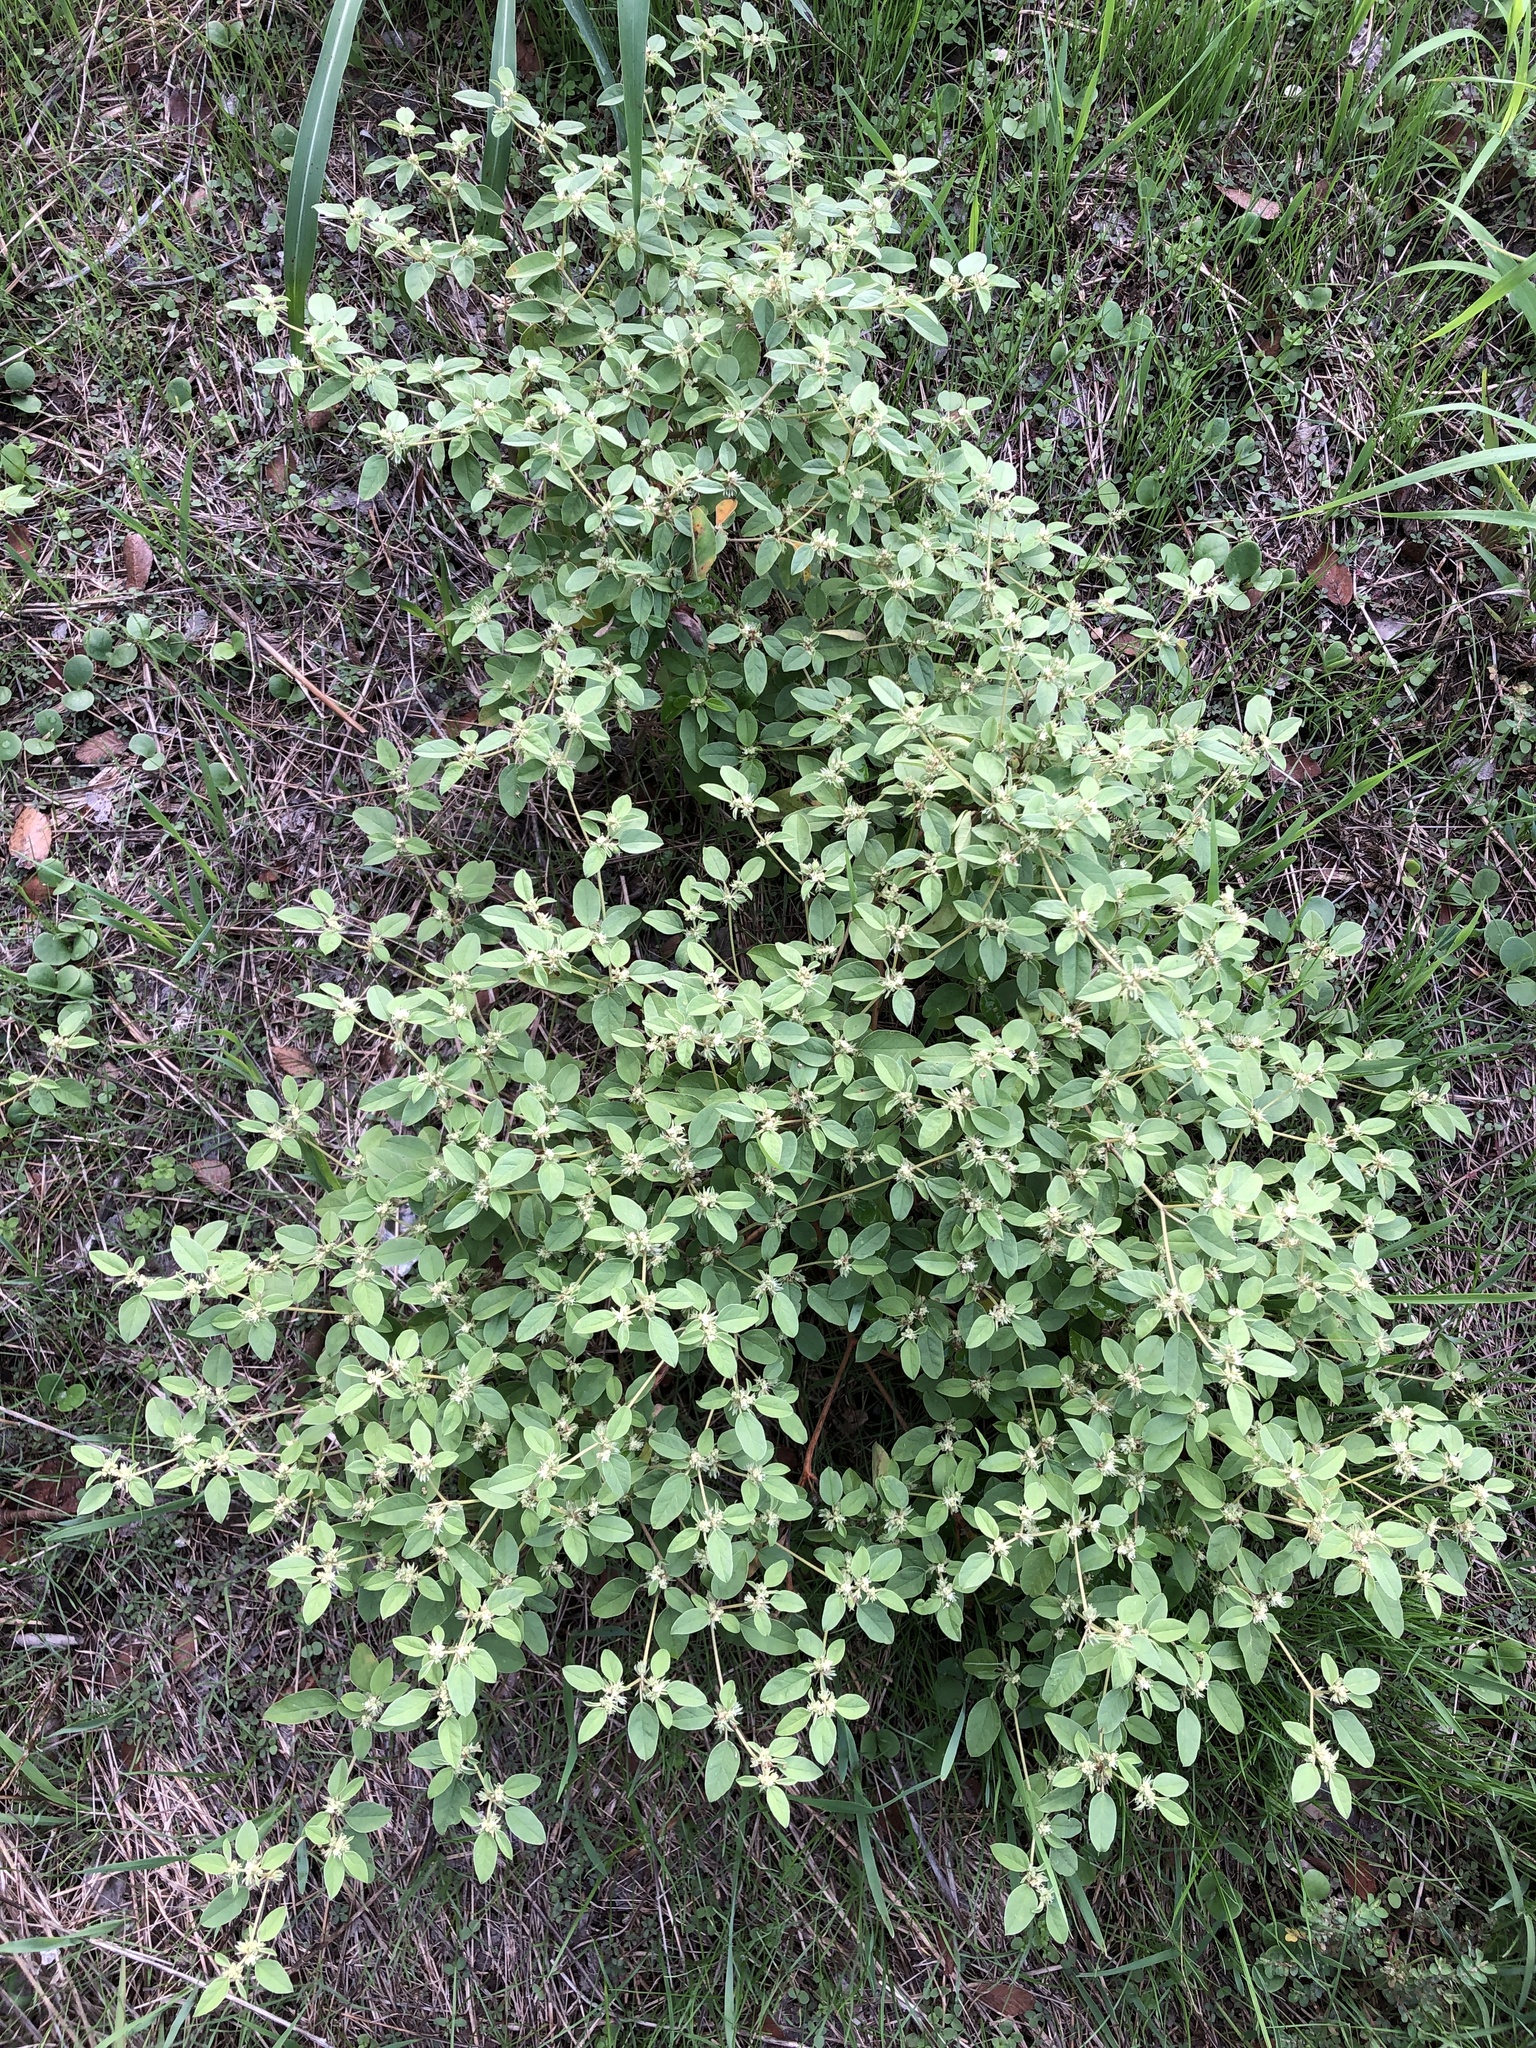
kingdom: Plantae
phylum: Tracheophyta
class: Magnoliopsida
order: Malpighiales
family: Euphorbiaceae
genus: Croton
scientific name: Croton monanthogynus
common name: One-seed croton
